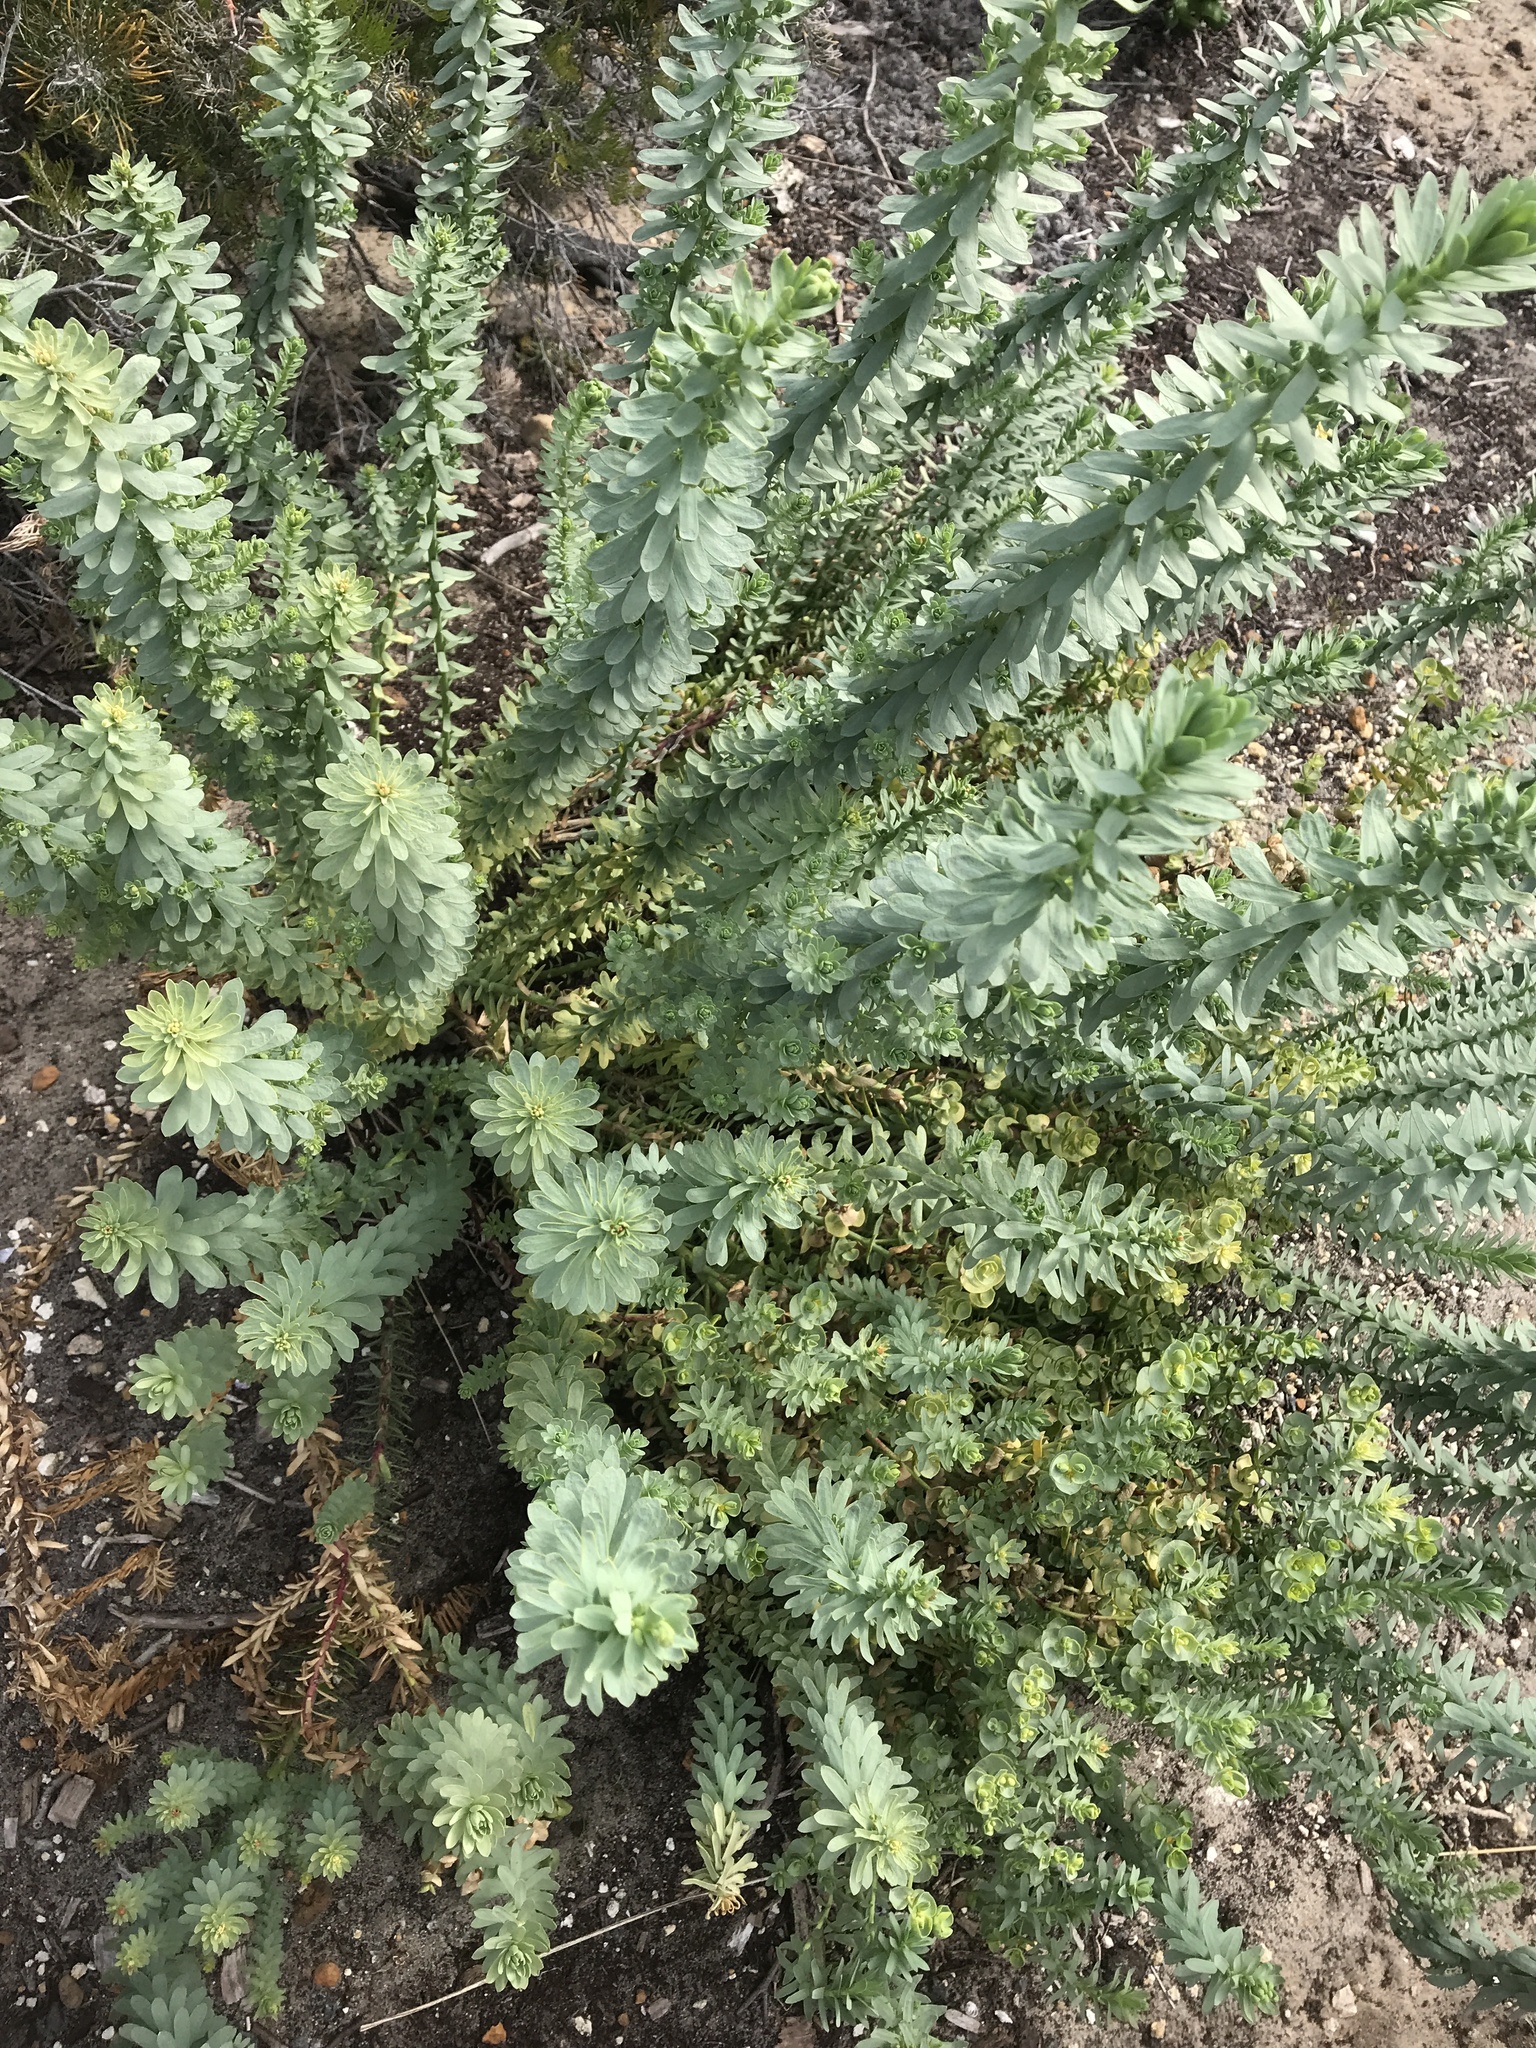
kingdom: Plantae
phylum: Tracheophyta
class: Magnoliopsida
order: Malpighiales
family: Euphorbiaceae
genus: Euphorbia
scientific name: Euphorbia paralias
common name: Sea spurge
